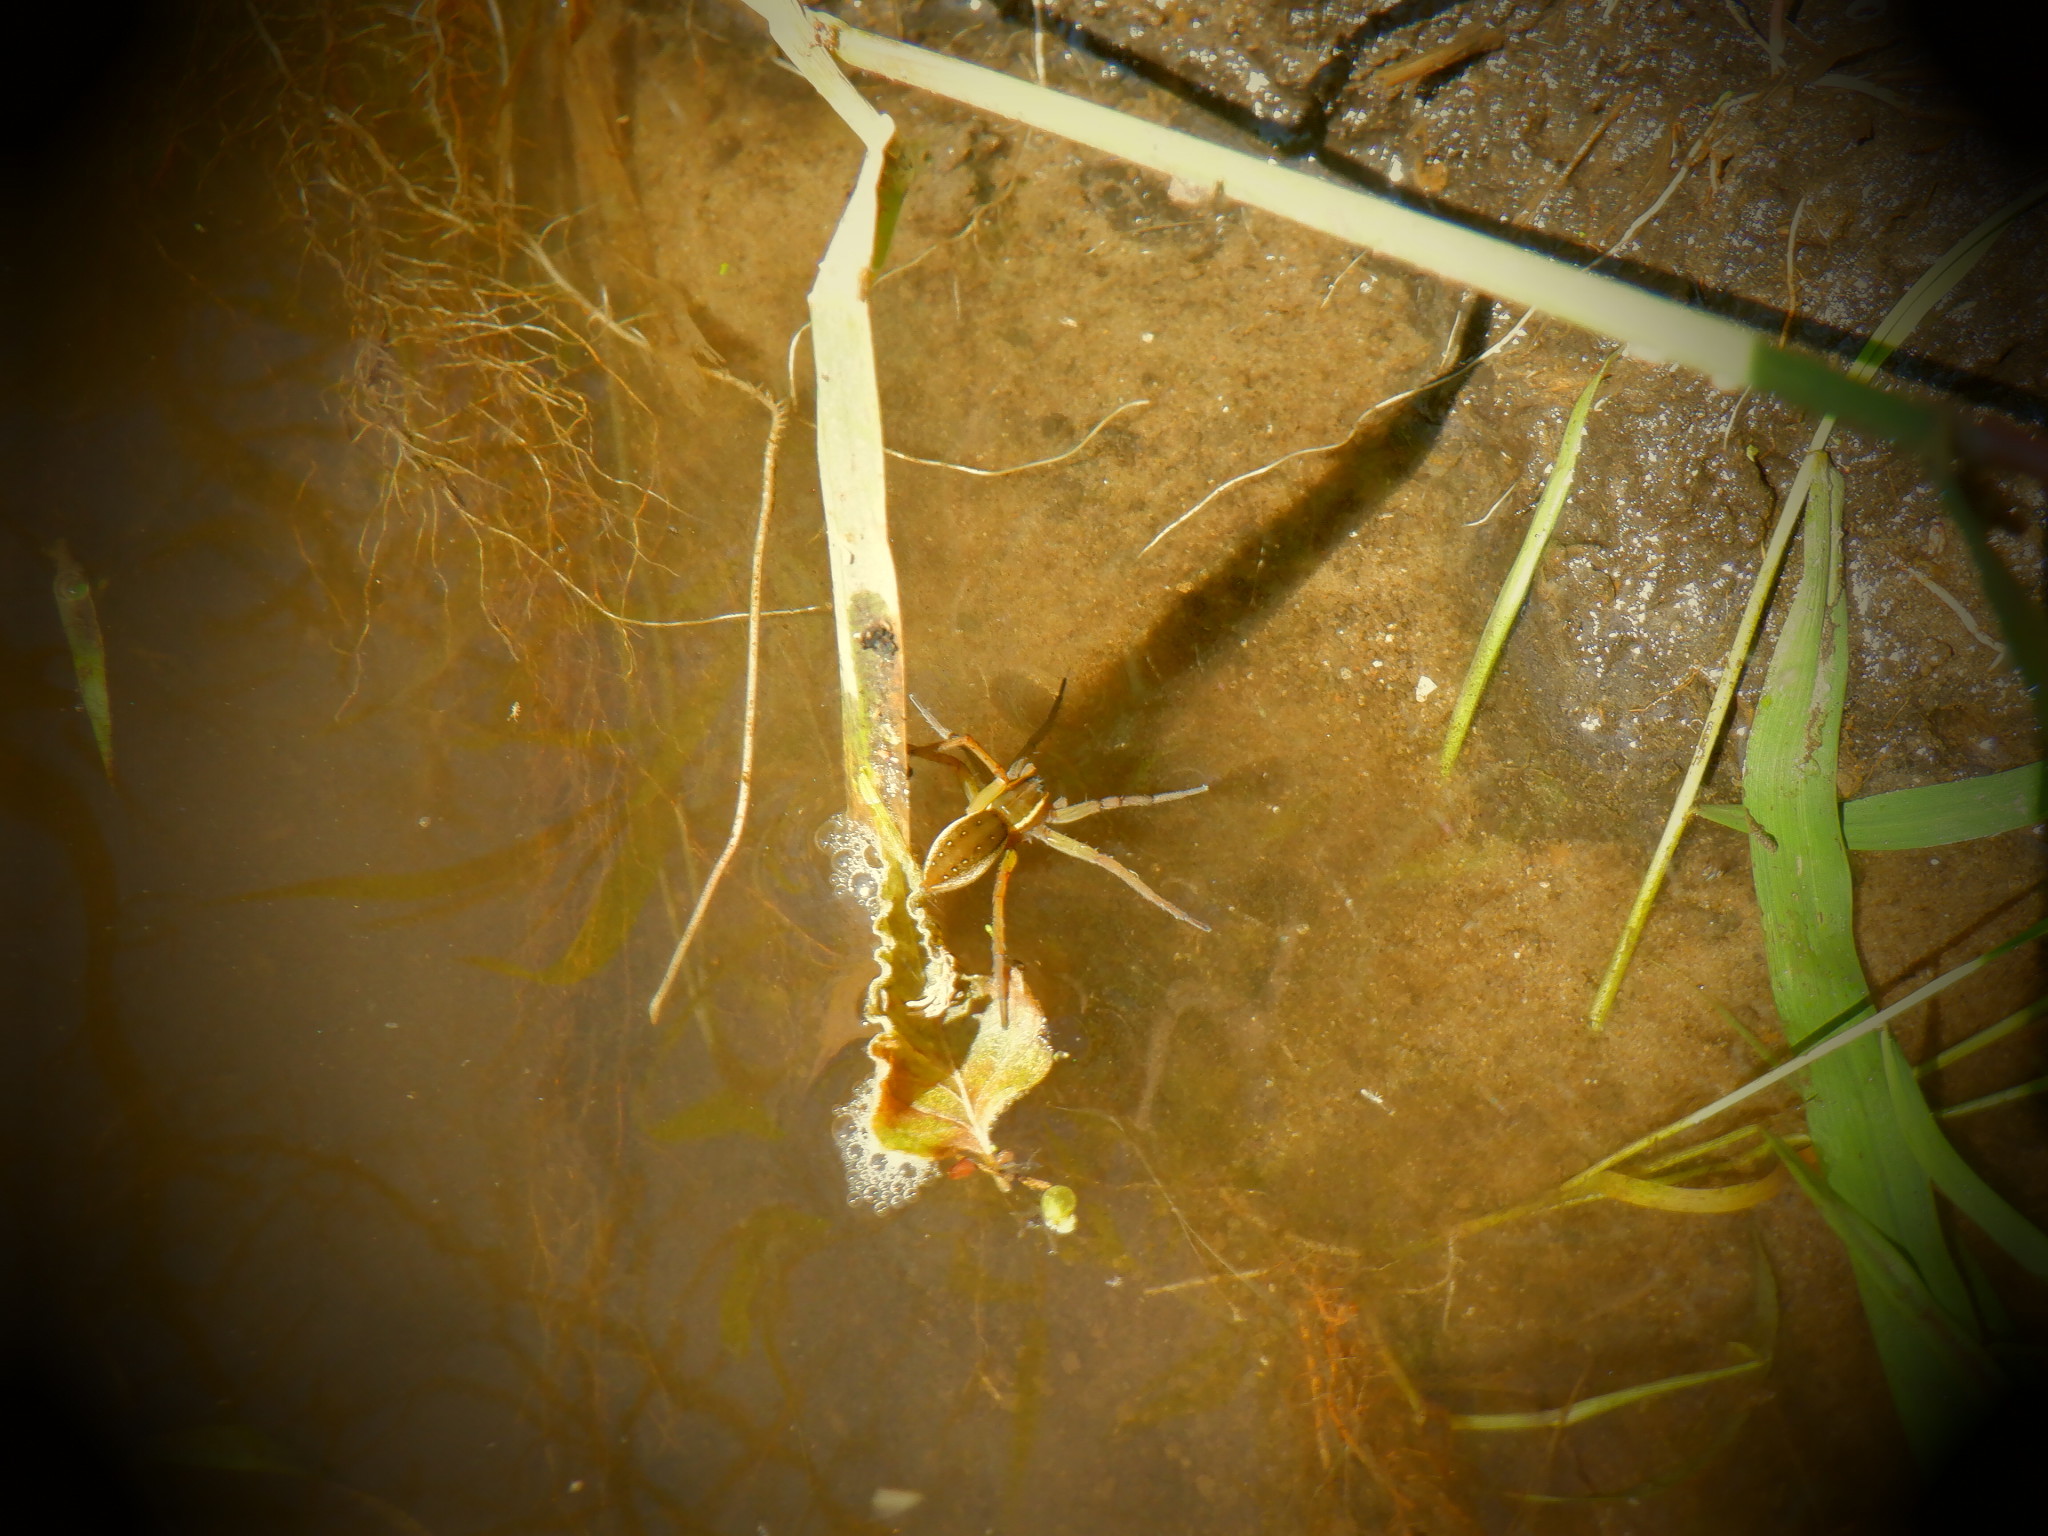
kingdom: Animalia
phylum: Arthropoda
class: Arachnida
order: Araneae
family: Pisauridae
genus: Dolomedes
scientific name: Dolomedes triton
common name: Six-spotted fishing spider
